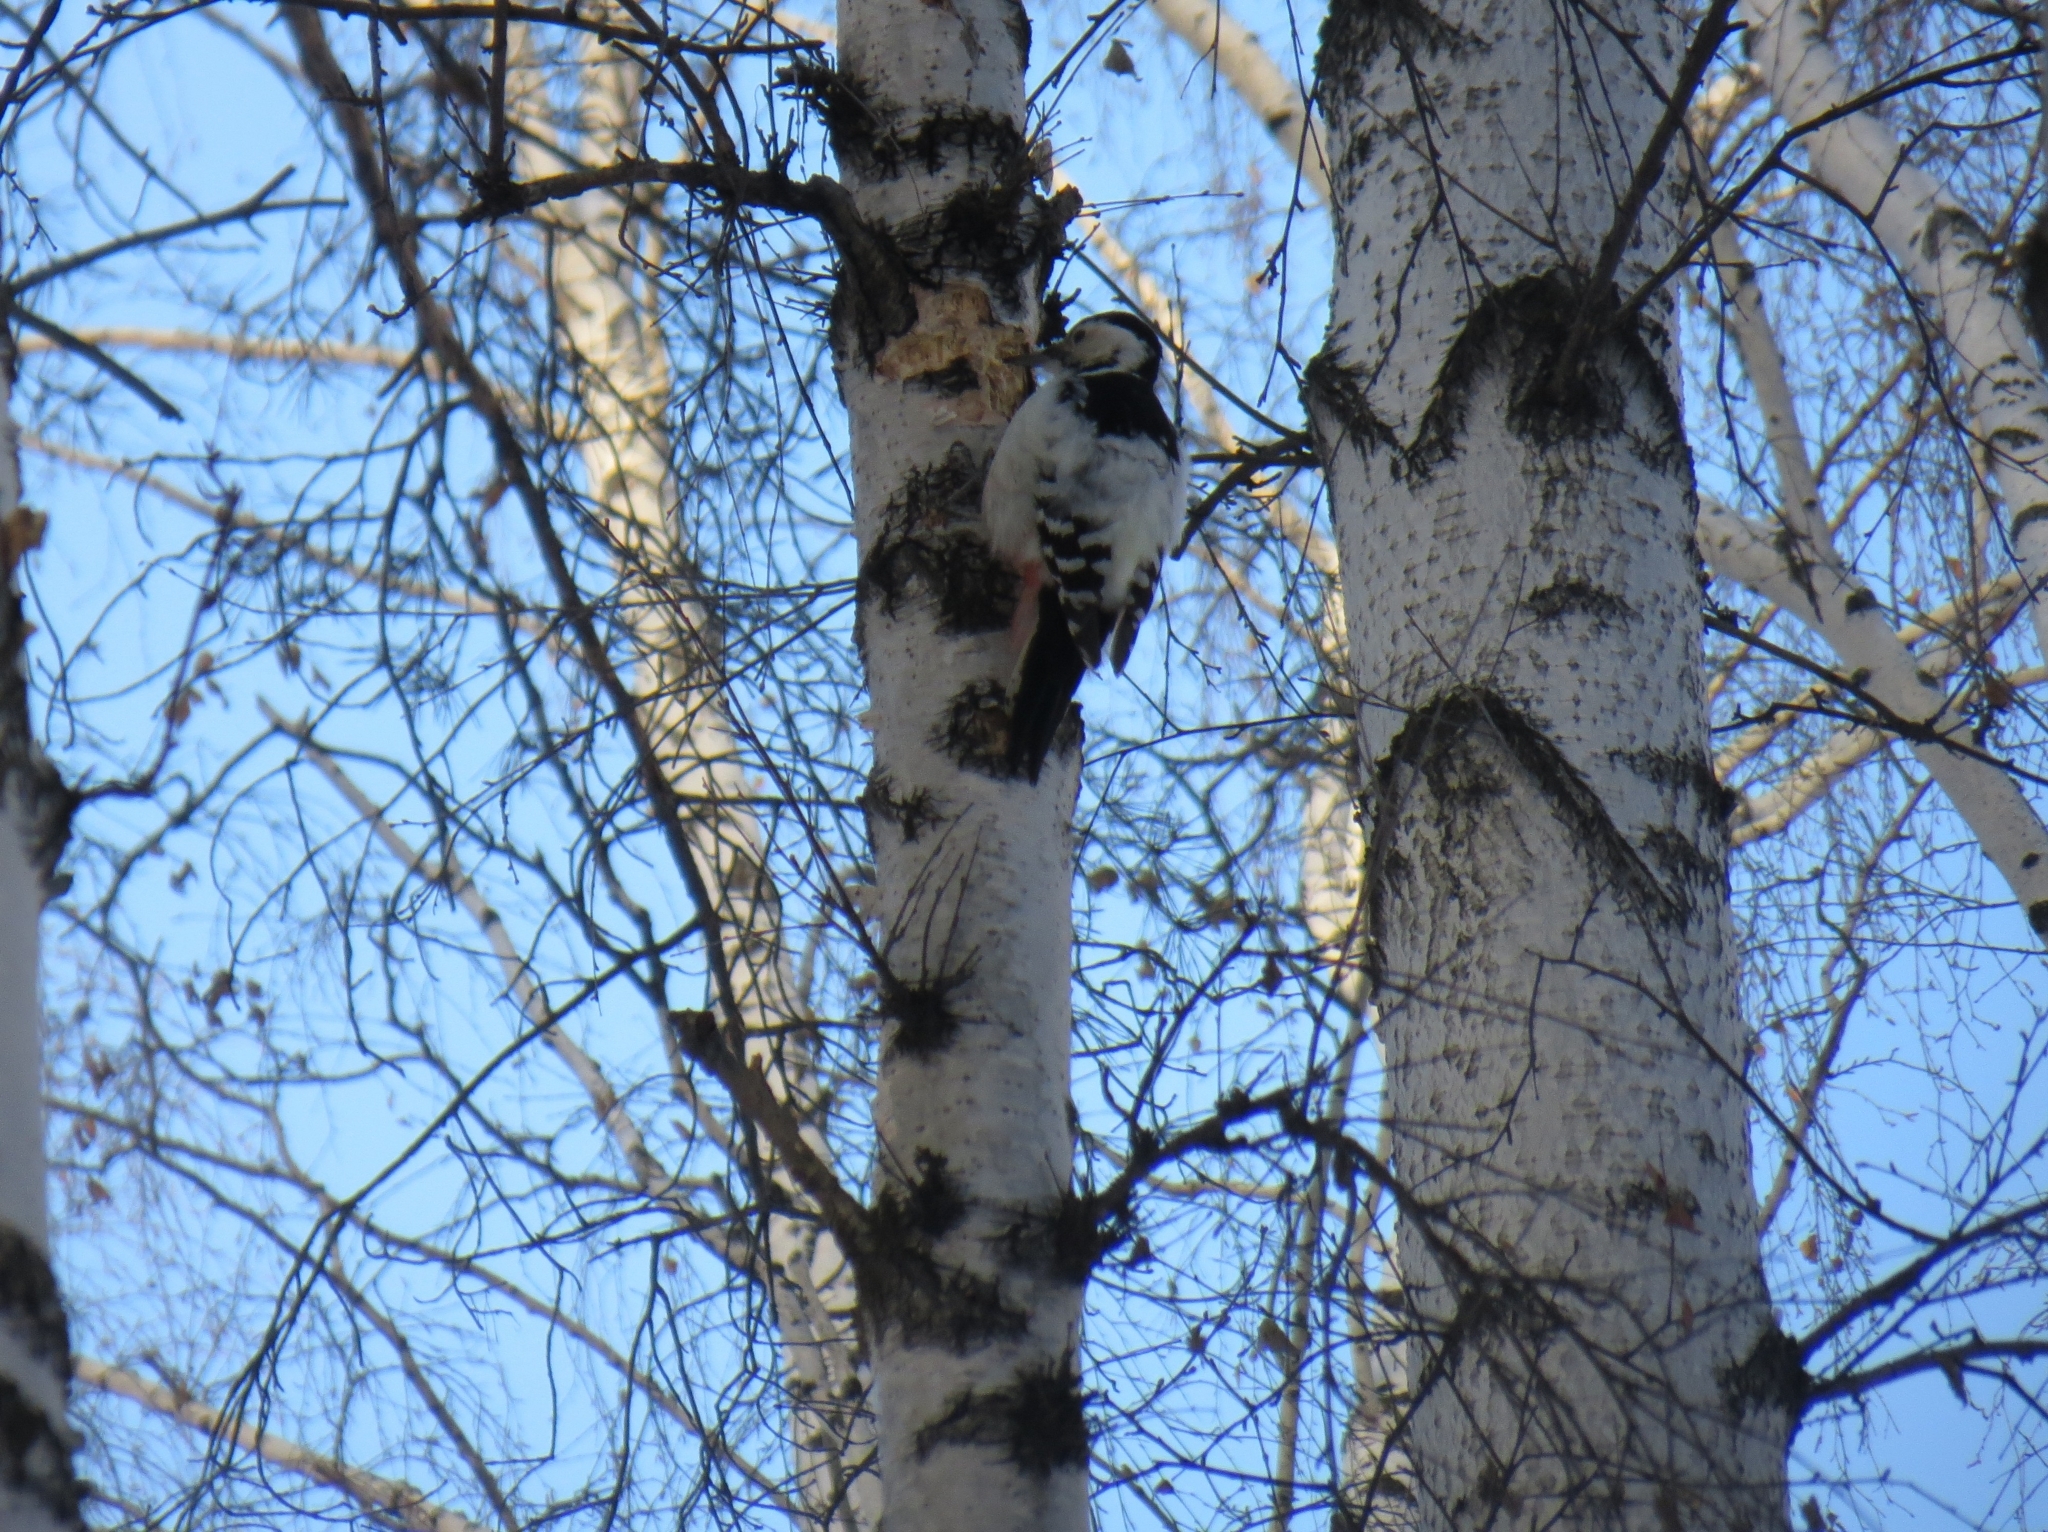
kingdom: Animalia
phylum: Chordata
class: Aves
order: Piciformes
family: Picidae
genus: Dendrocopos
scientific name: Dendrocopos leucotos
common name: White-backed woodpecker
